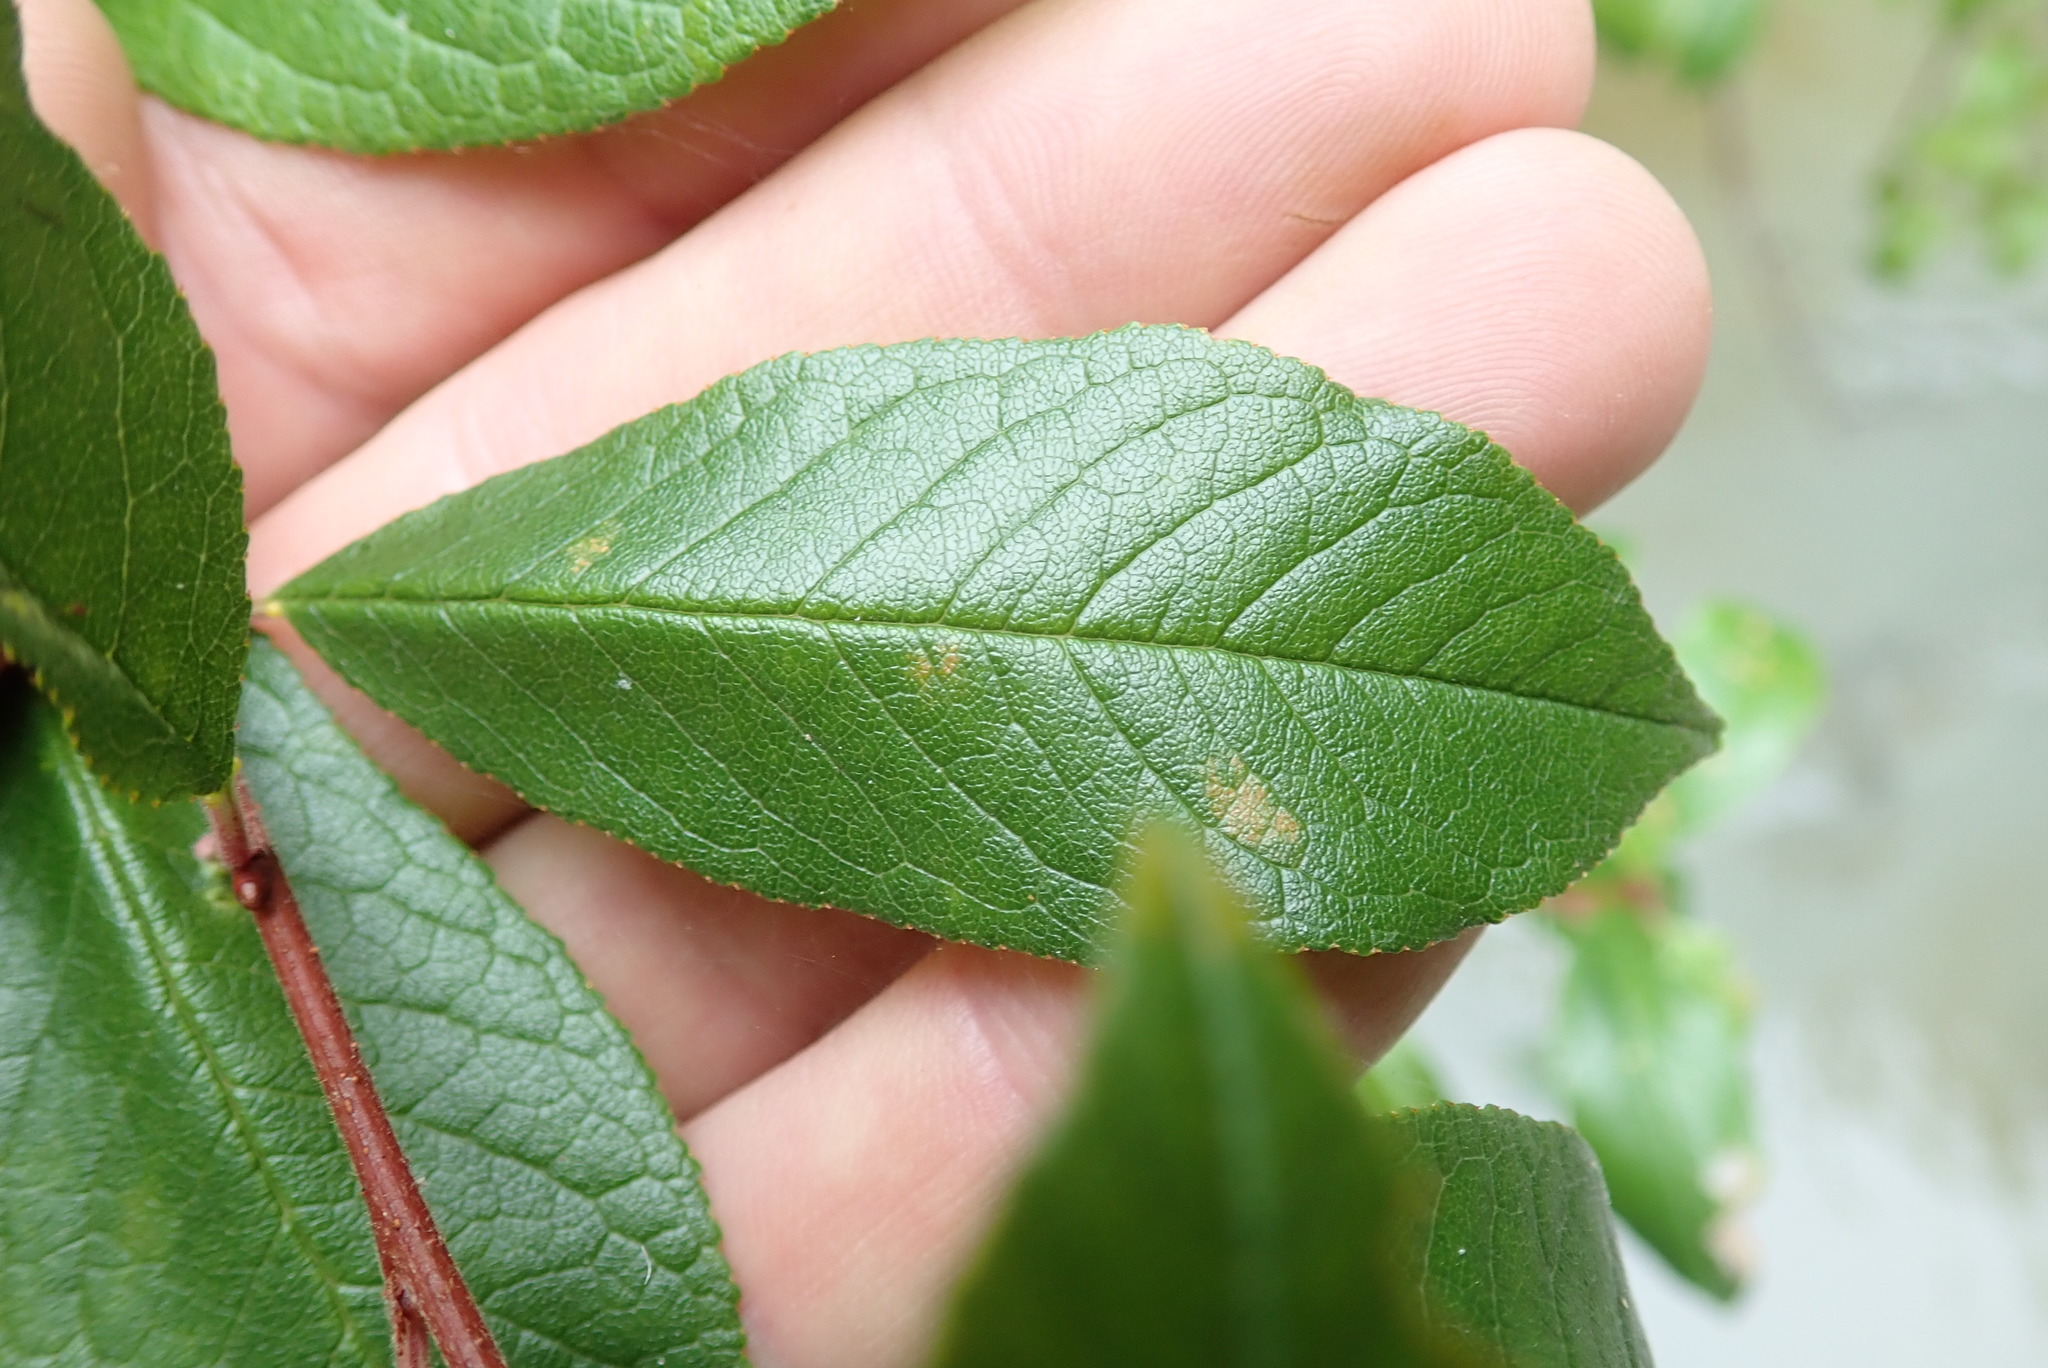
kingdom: Plantae
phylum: Tracheophyta
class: Magnoliopsida
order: Rosales
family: Rosaceae
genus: Prunus
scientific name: Prunus emarginata
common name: Bitter cherry
